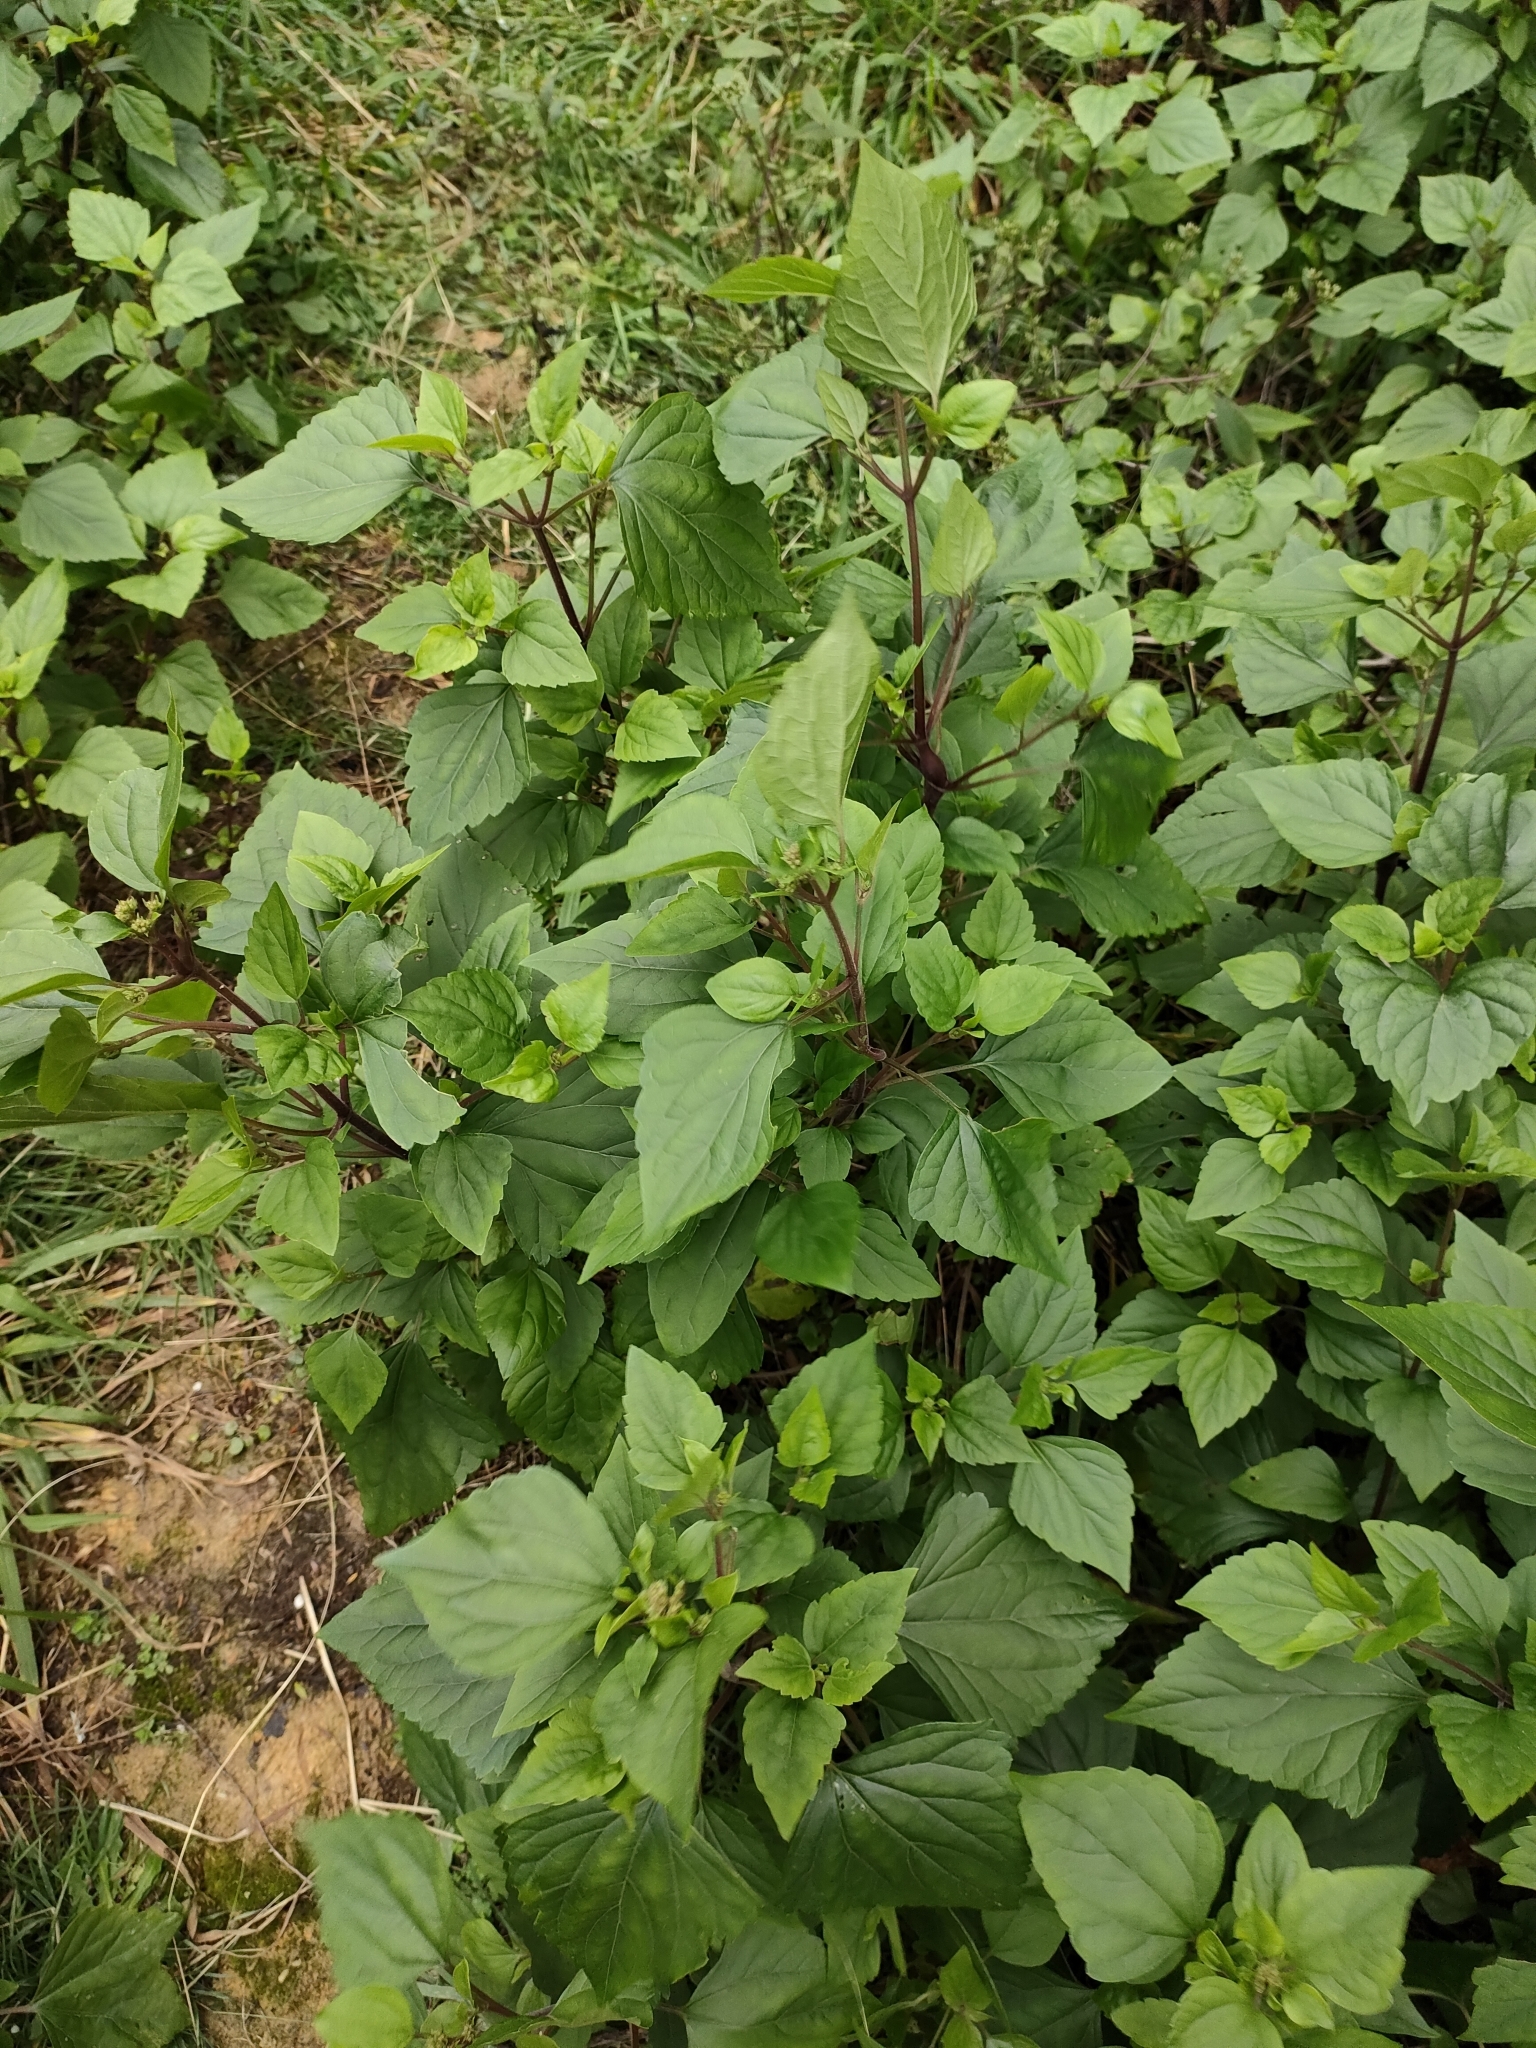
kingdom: Plantae
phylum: Tracheophyta
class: Magnoliopsida
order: Asterales
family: Asteraceae
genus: Ageratina
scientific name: Ageratina adenophora
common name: Sticky snakeroot
